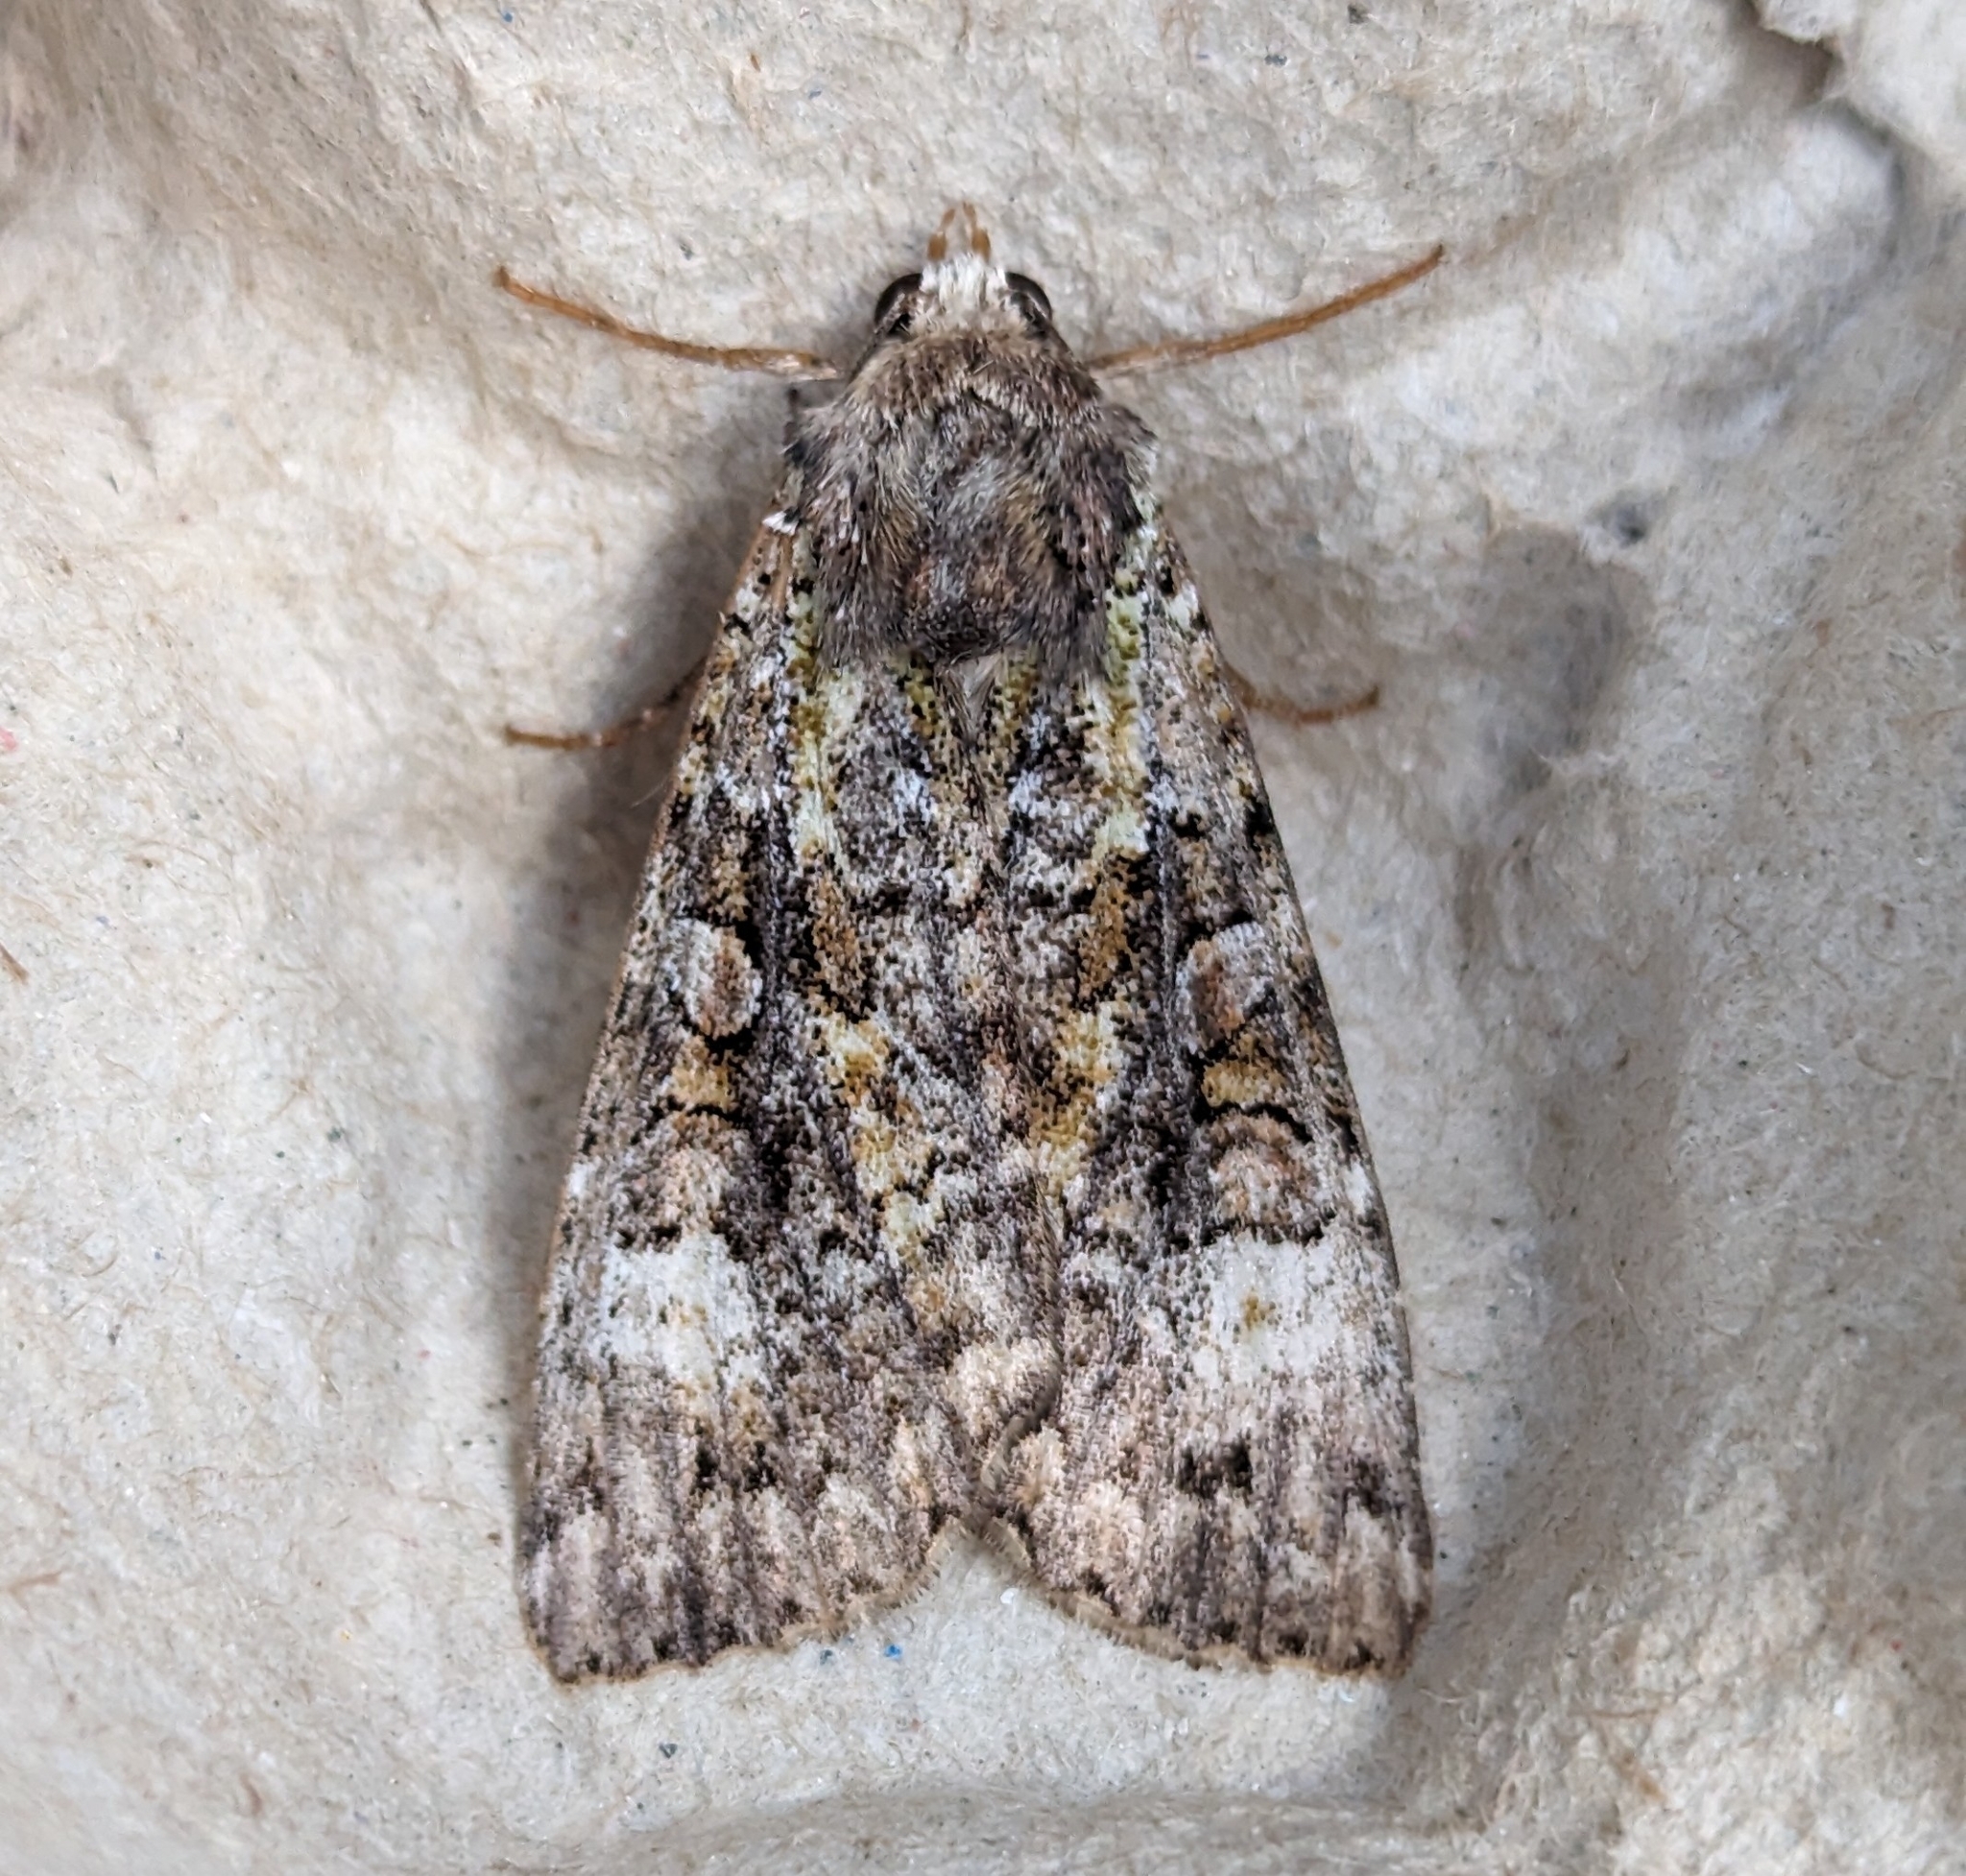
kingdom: Animalia
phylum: Arthropoda
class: Insecta
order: Lepidoptera
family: Noctuidae
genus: Anaplectoides
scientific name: Anaplectoides prasina
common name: Green arches
